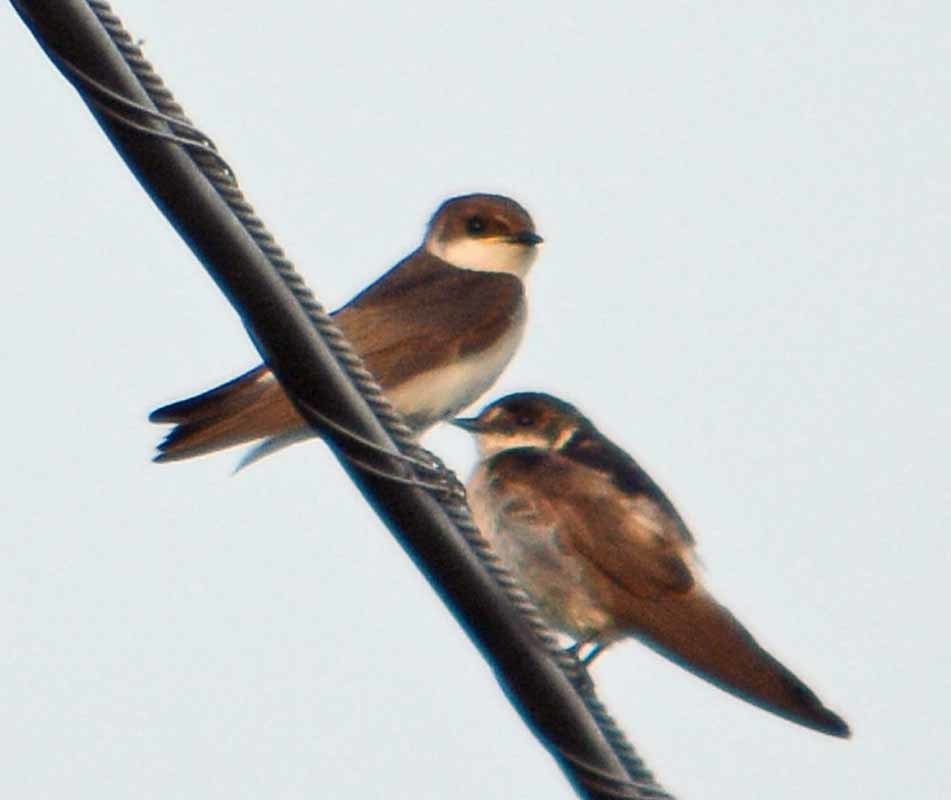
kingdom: Animalia
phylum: Chordata
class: Aves
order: Passeriformes
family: Hirundinidae
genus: Tachycineta
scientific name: Tachycineta albilinea
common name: Mangrove swallow
